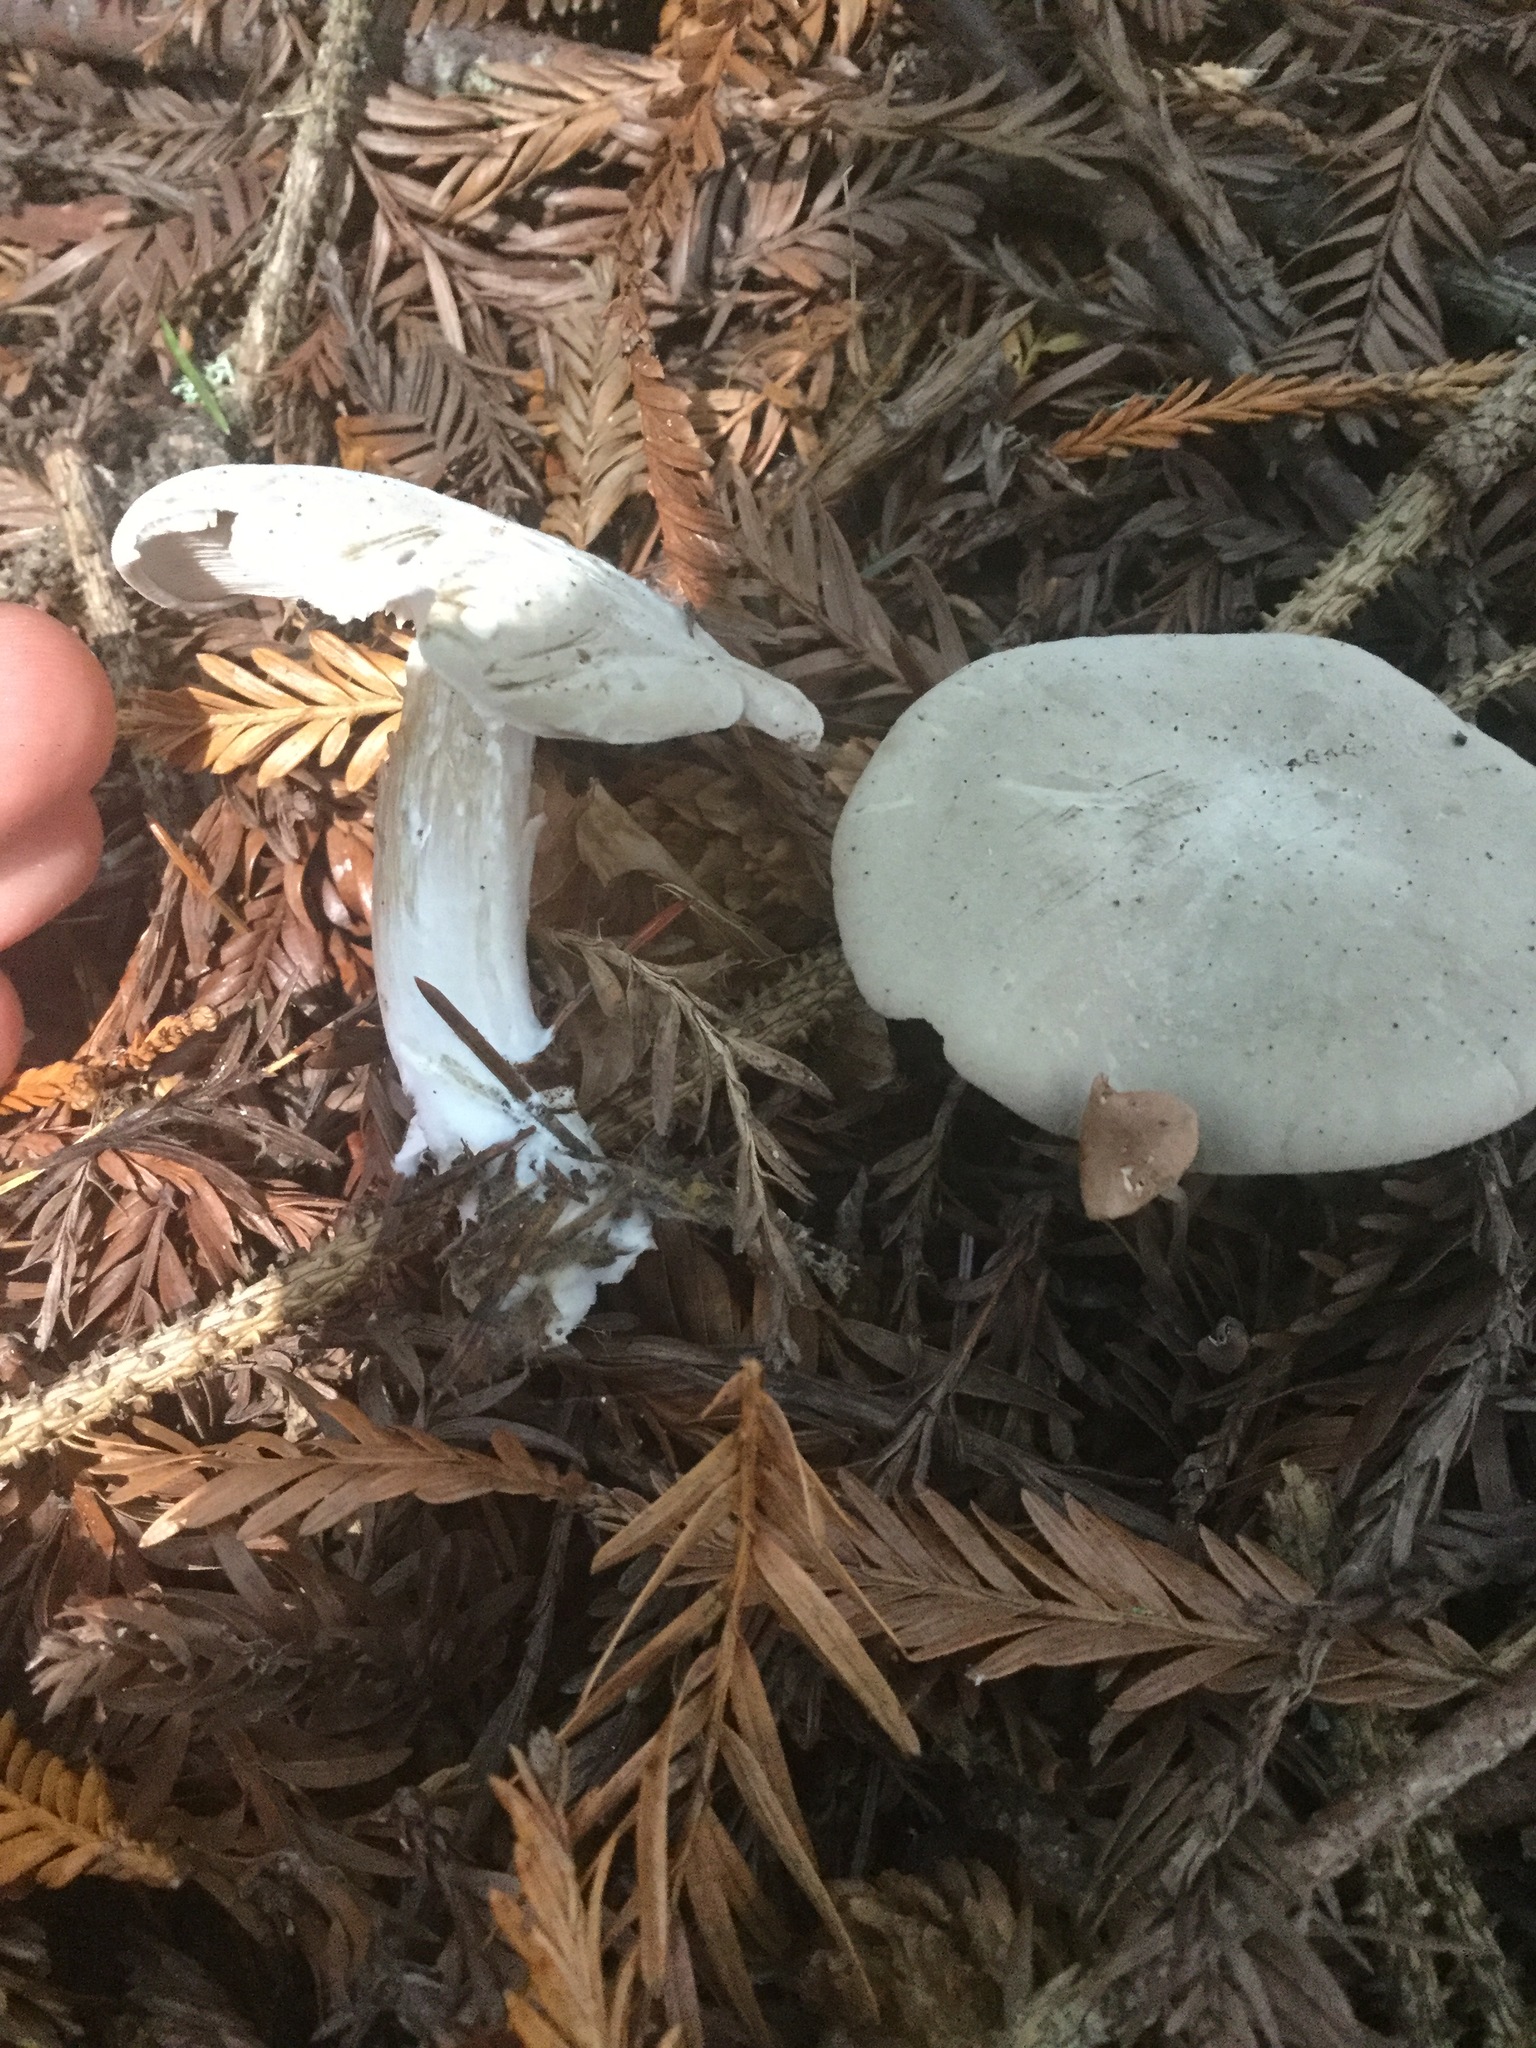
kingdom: Fungi
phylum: Basidiomycota
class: Agaricomycetes
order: Agaricales
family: Entolomataceae
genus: Clitopilus
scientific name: Clitopilus prunulus
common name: The miller
